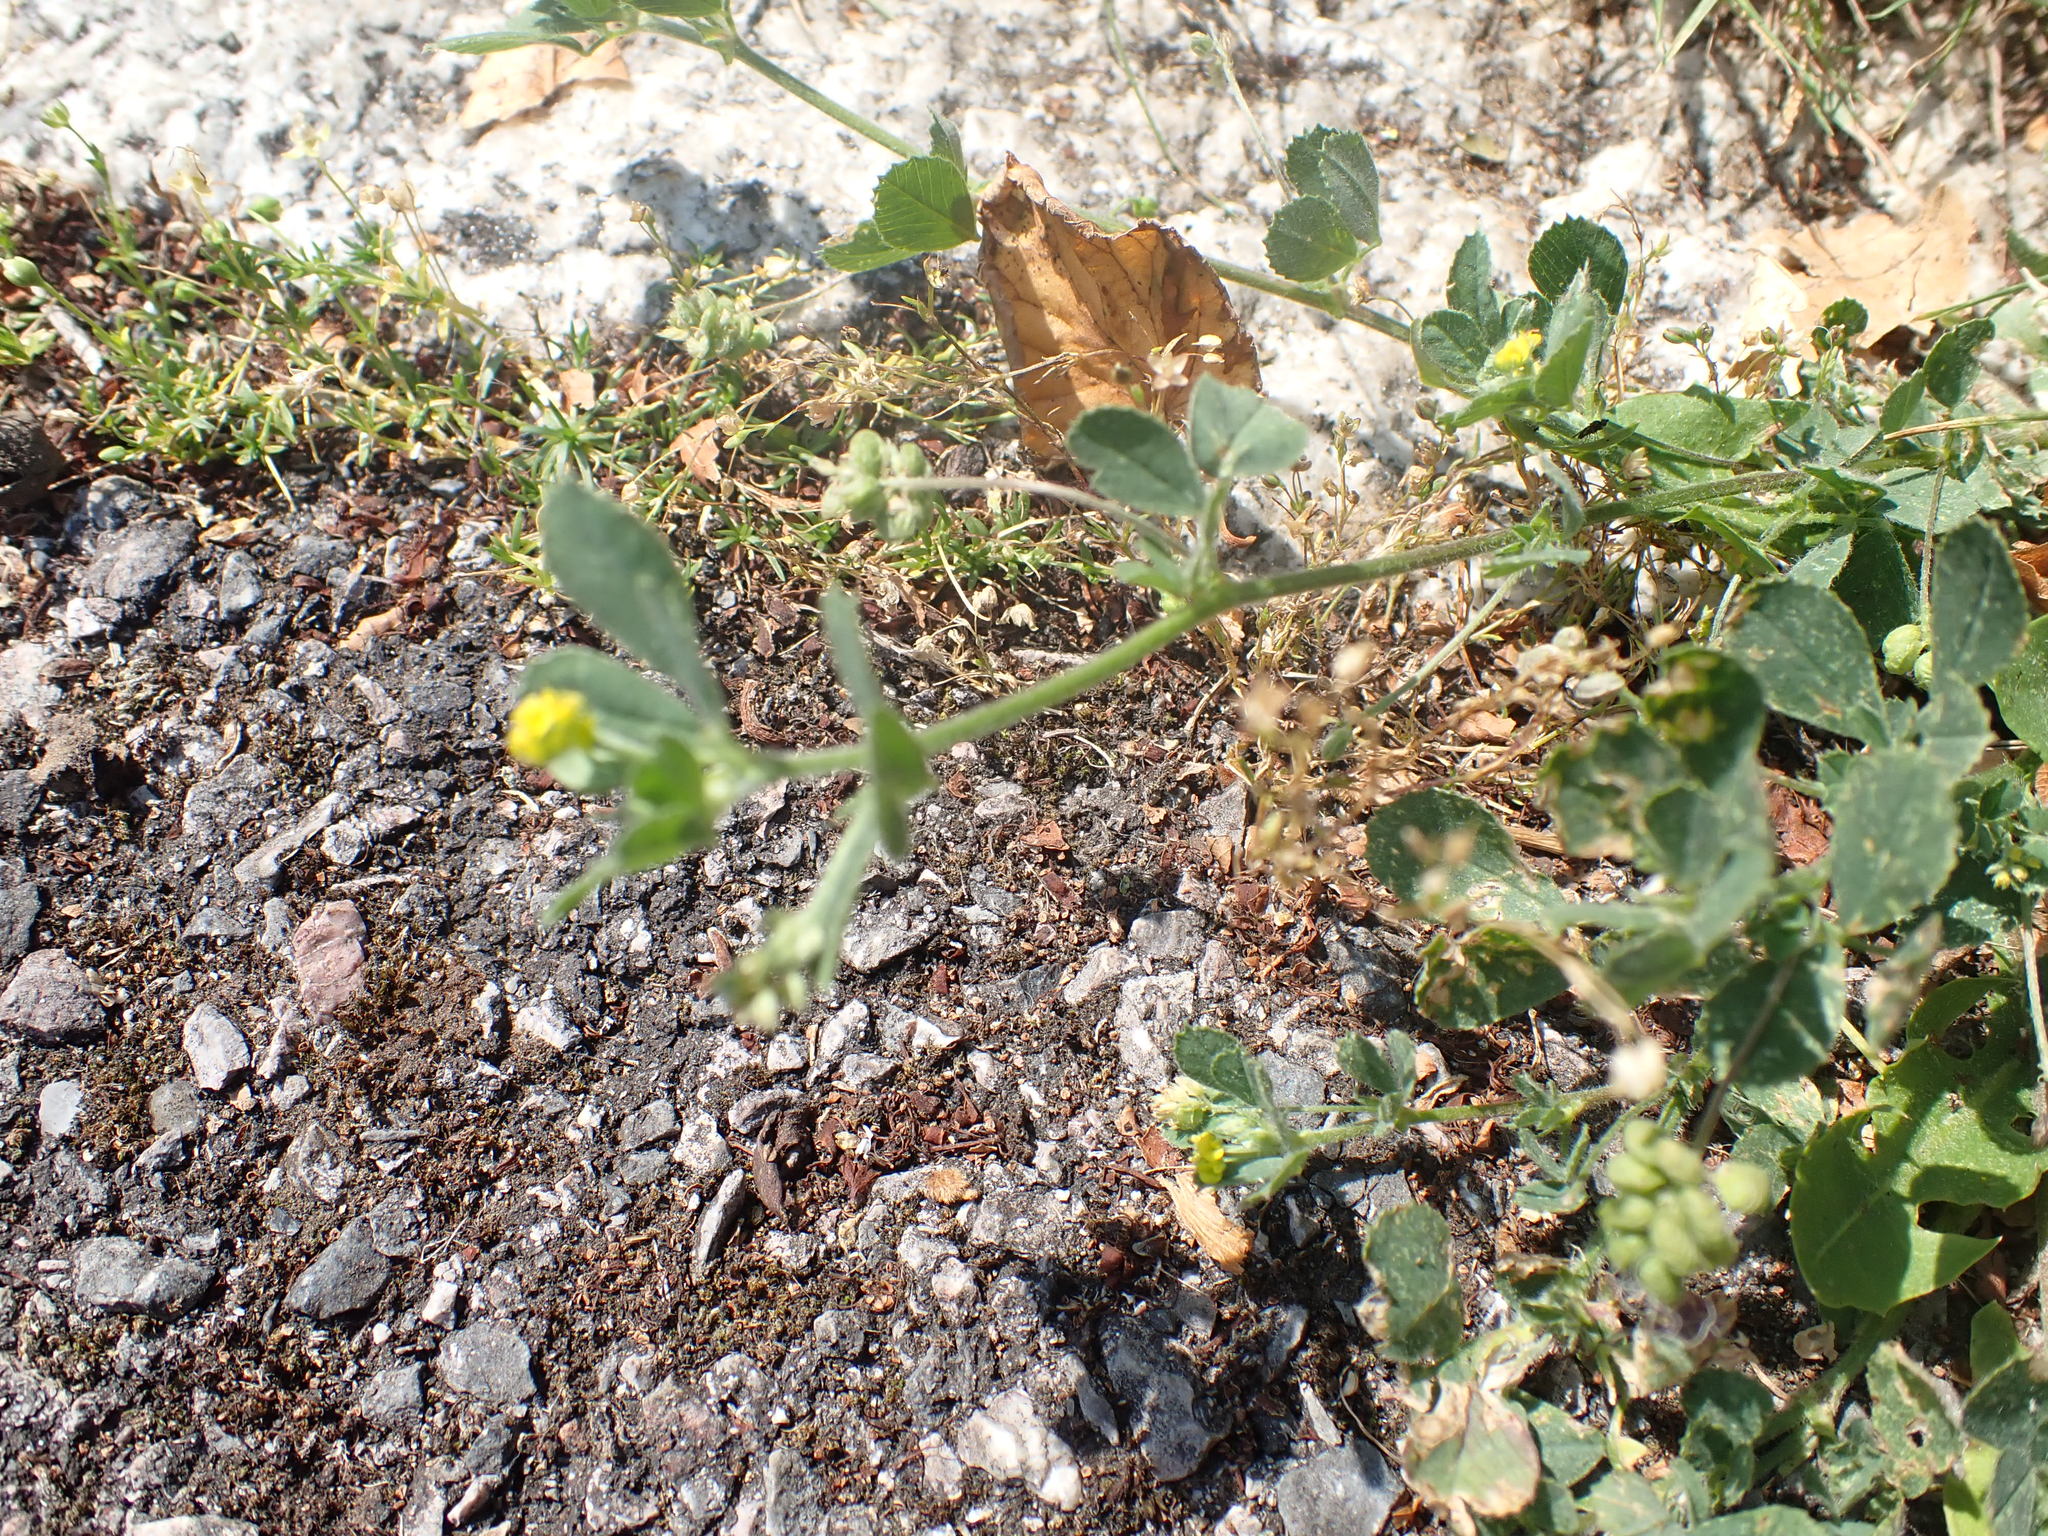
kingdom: Plantae
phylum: Tracheophyta
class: Magnoliopsida
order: Fabales
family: Fabaceae
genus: Medicago
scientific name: Medicago lupulina
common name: Black medick
